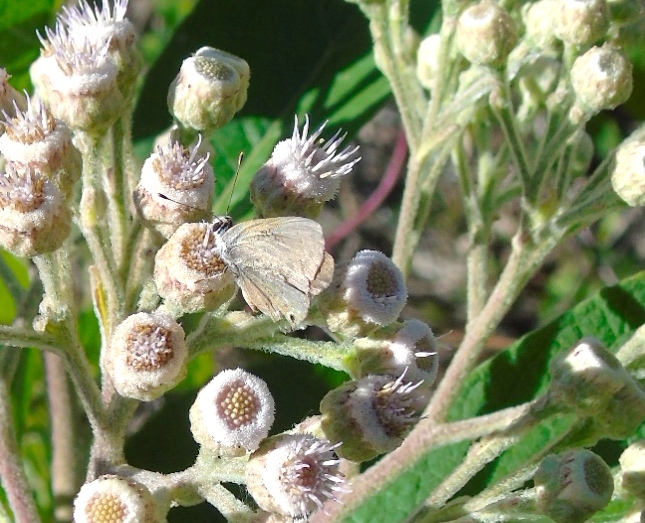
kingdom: Animalia
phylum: Arthropoda
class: Insecta
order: Lepidoptera
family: Lycaenidae
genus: Callicista
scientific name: Callicista columella
